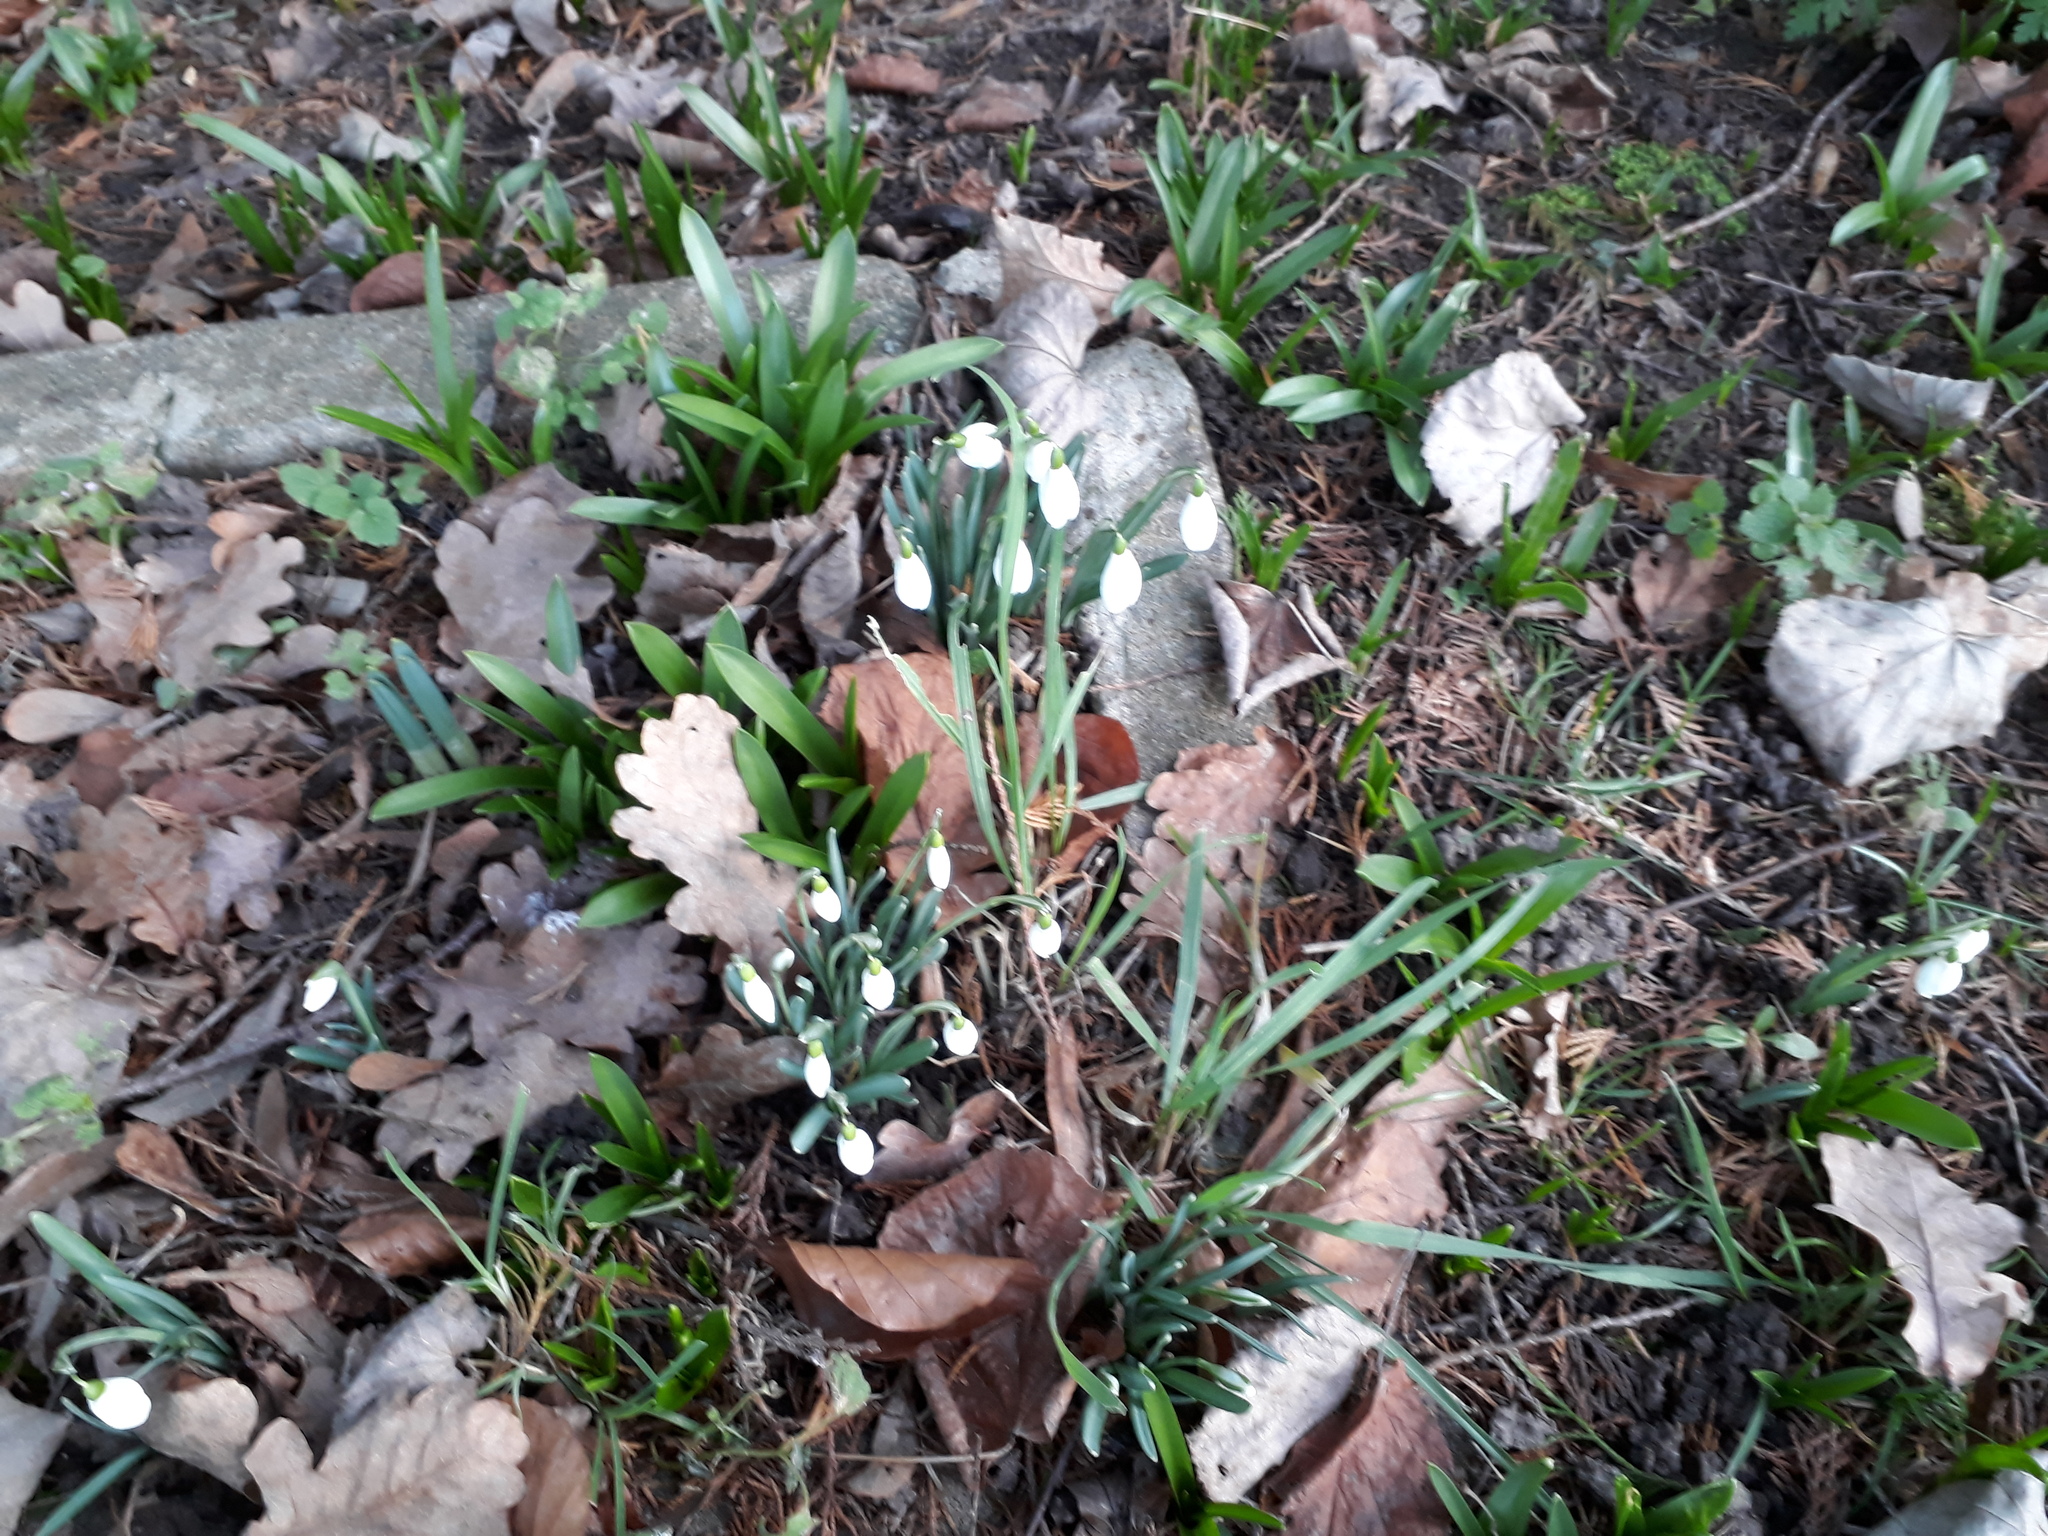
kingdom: Plantae
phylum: Tracheophyta
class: Liliopsida
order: Asparagales
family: Amaryllidaceae
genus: Galanthus
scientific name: Galanthus nivalis
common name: Snowdrop
